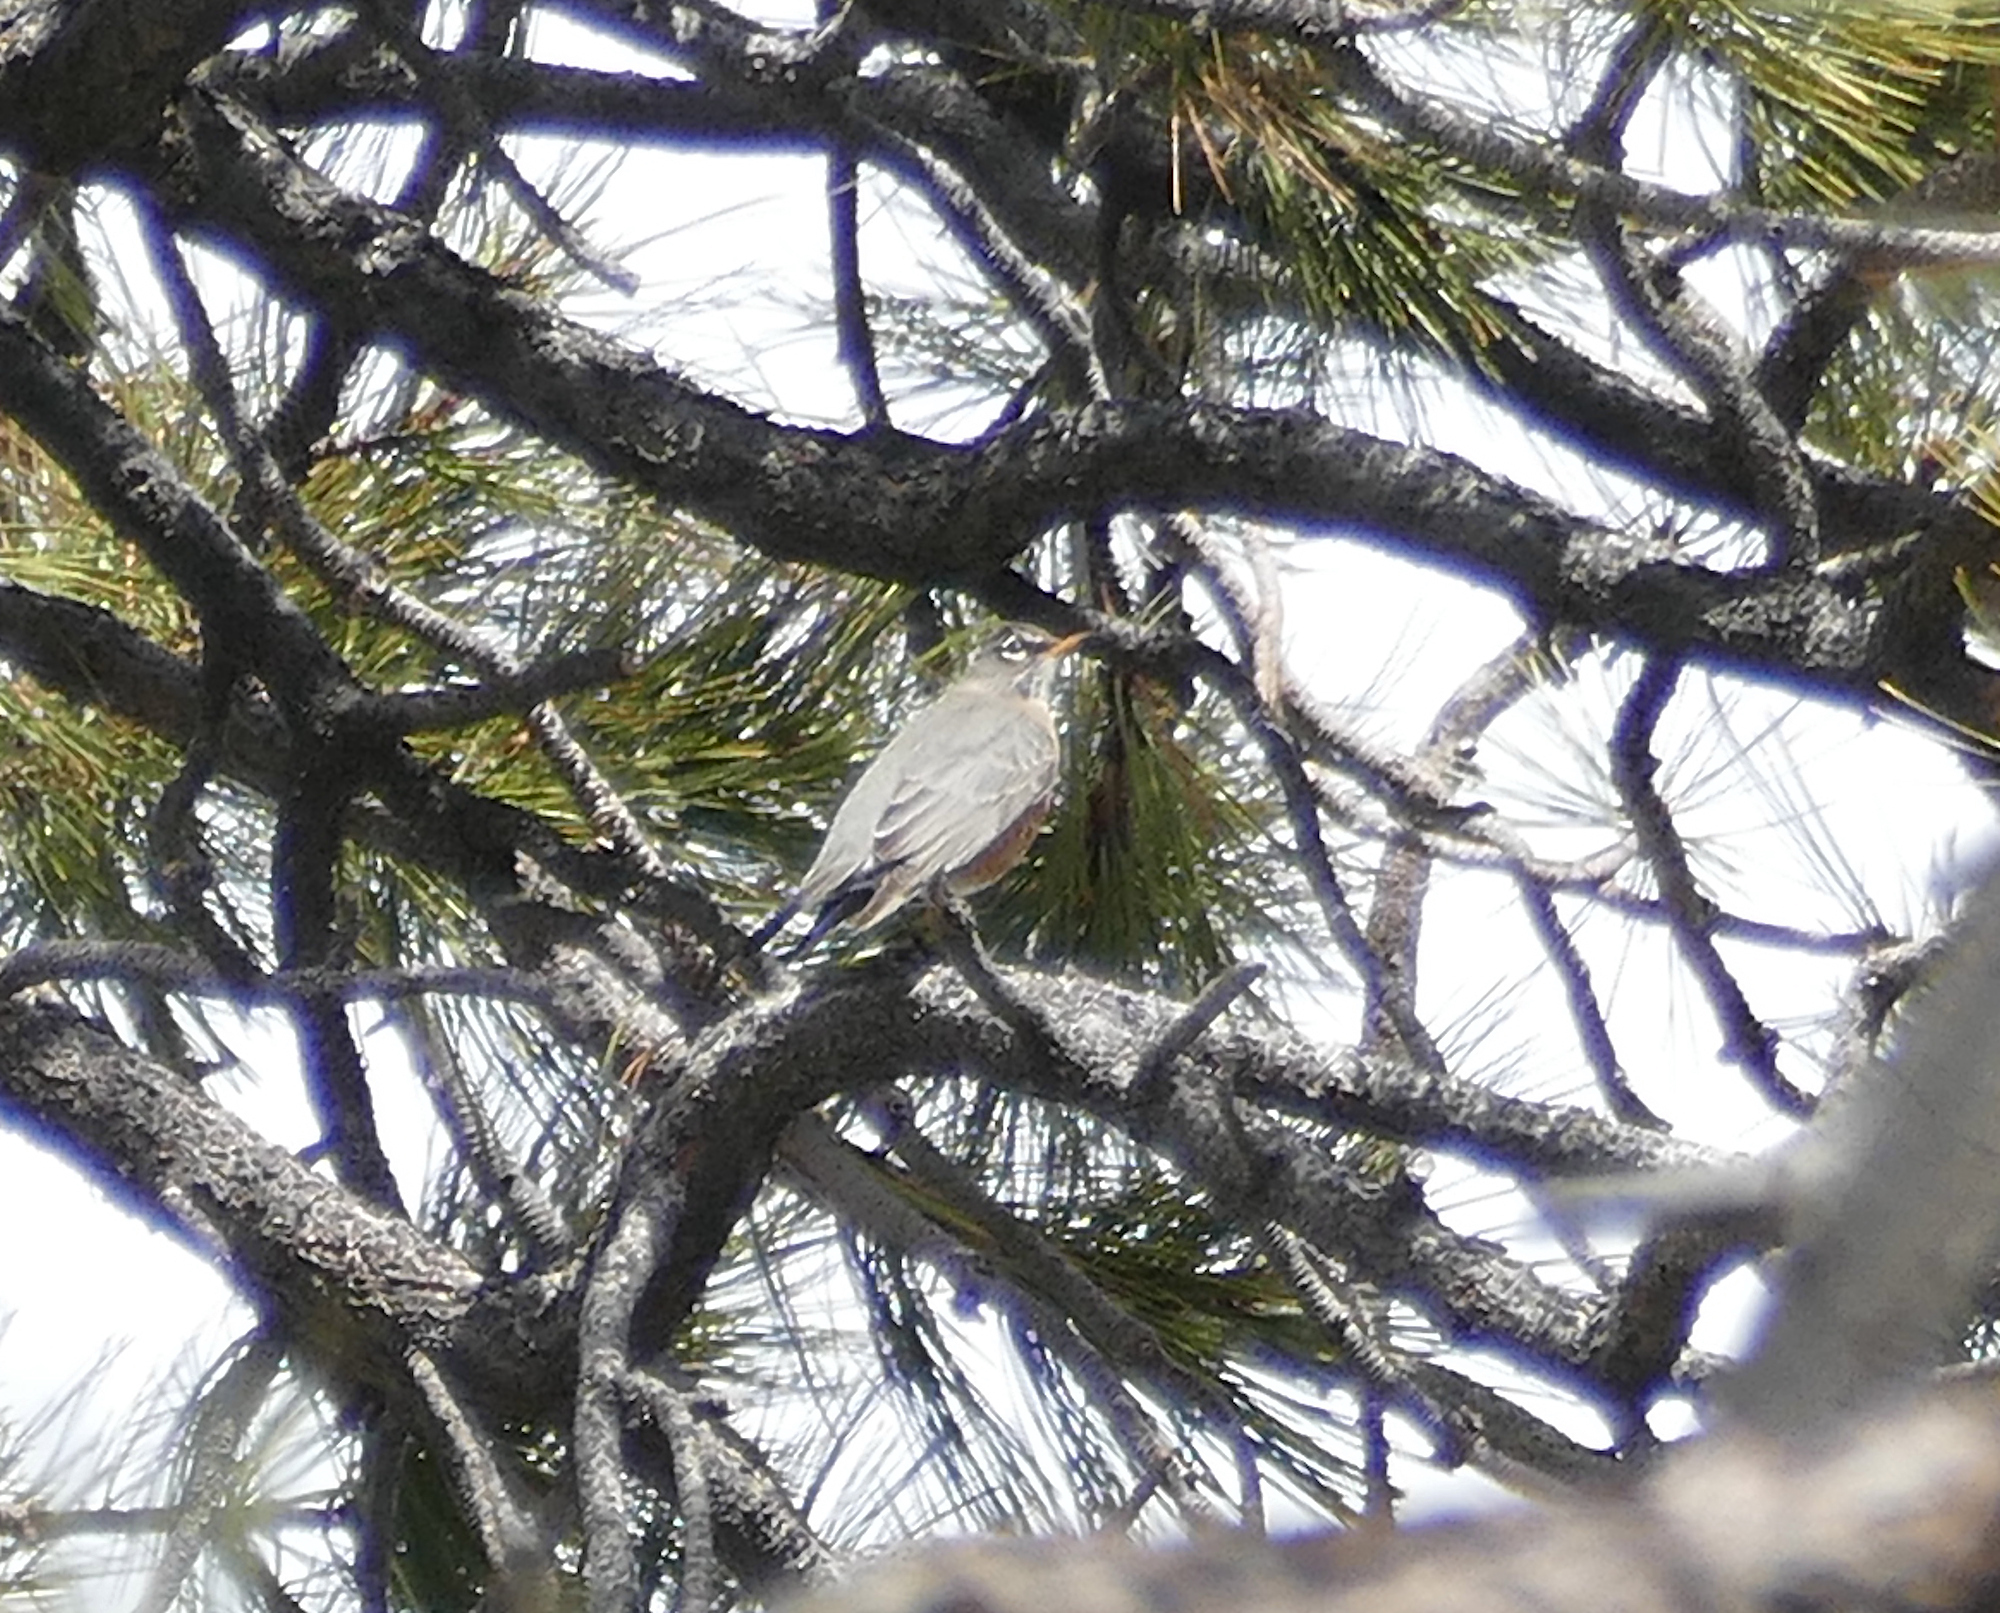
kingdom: Animalia
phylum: Chordata
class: Aves
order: Passeriformes
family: Turdidae
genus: Turdus
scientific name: Turdus migratorius
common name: American robin
